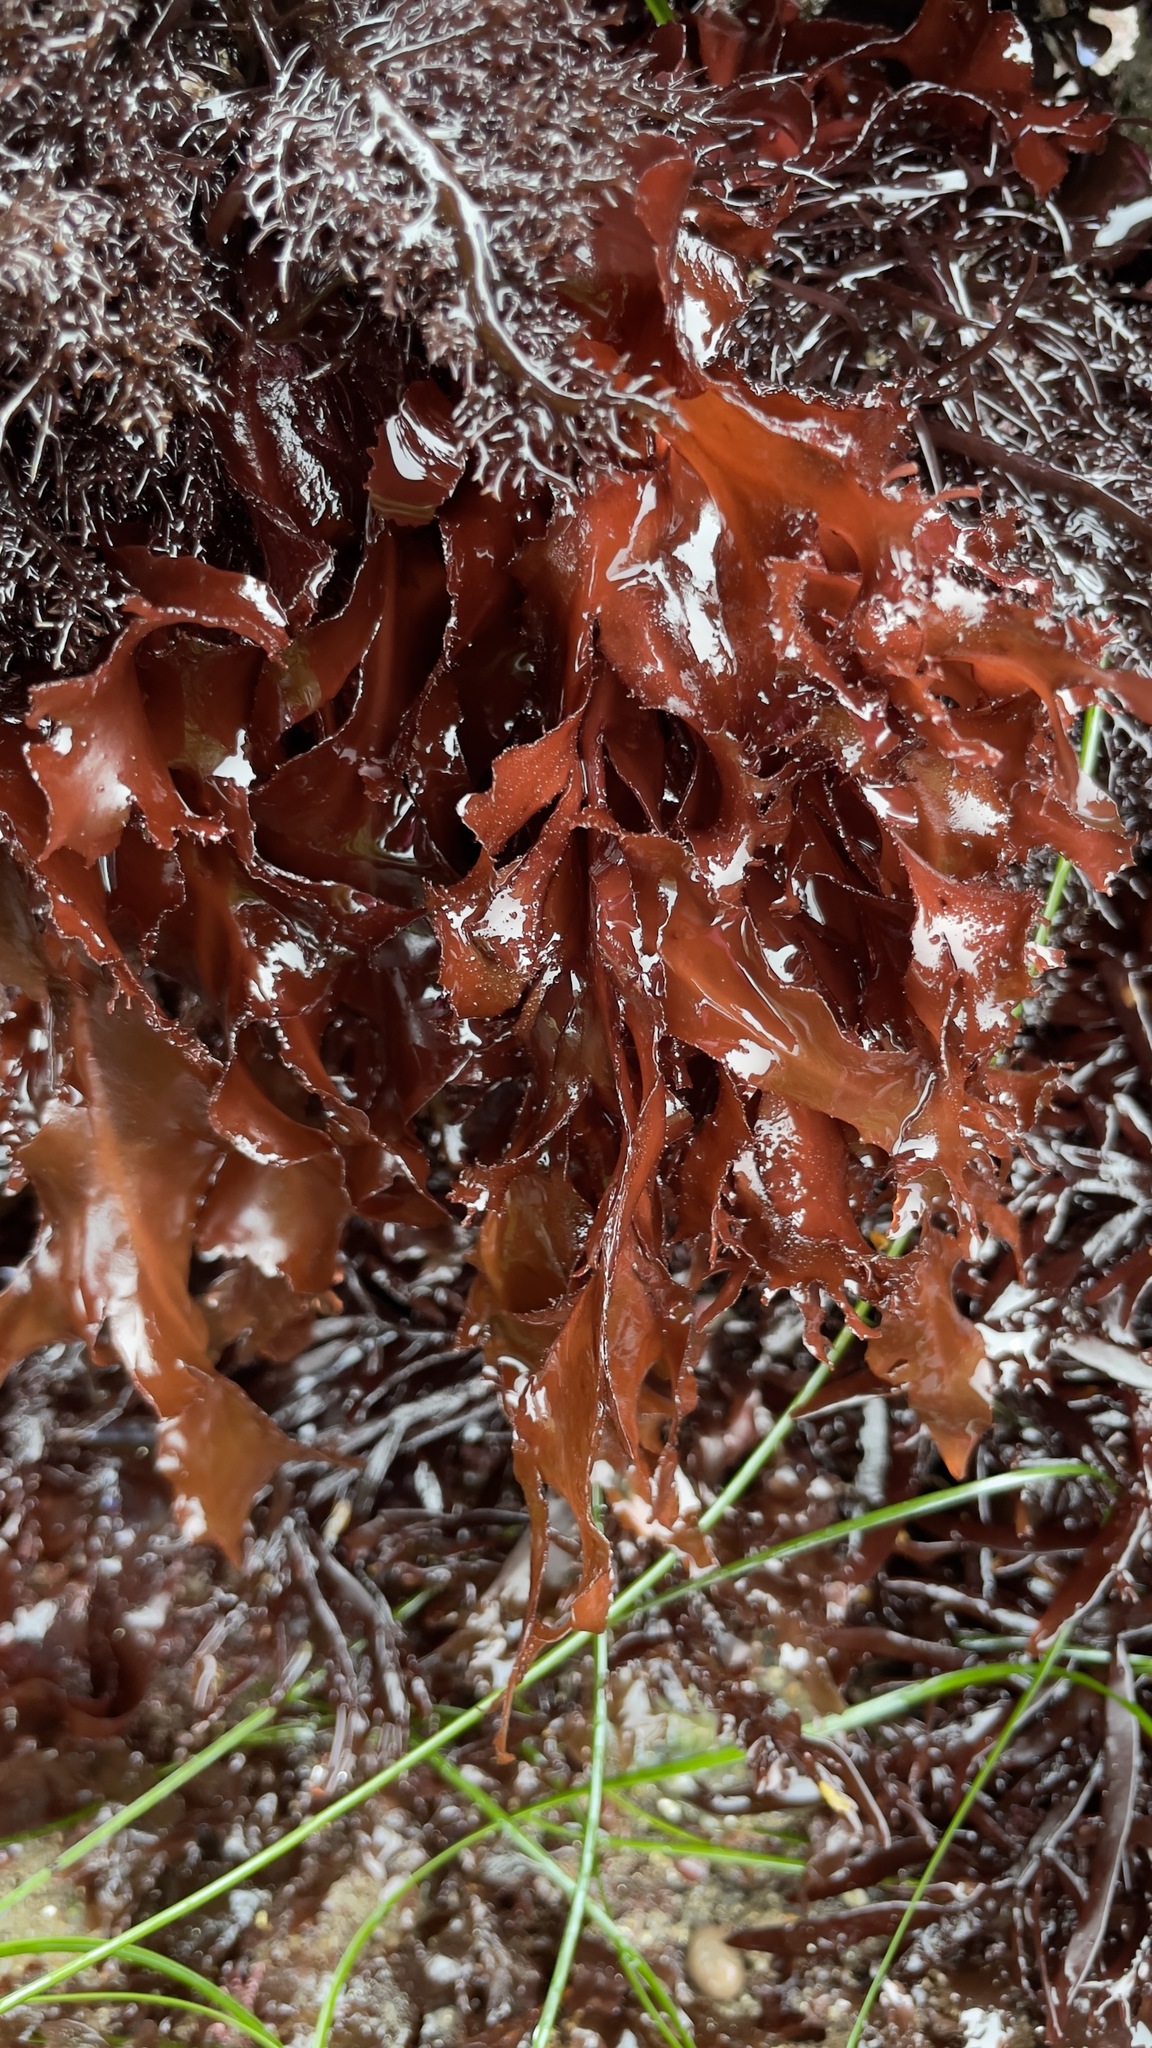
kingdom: Plantae
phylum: Rhodophyta
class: Florideophyceae
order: Gigartinales
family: Kallymeniaceae
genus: Erythrophyllum
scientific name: Erythrophyllum delesserioides
